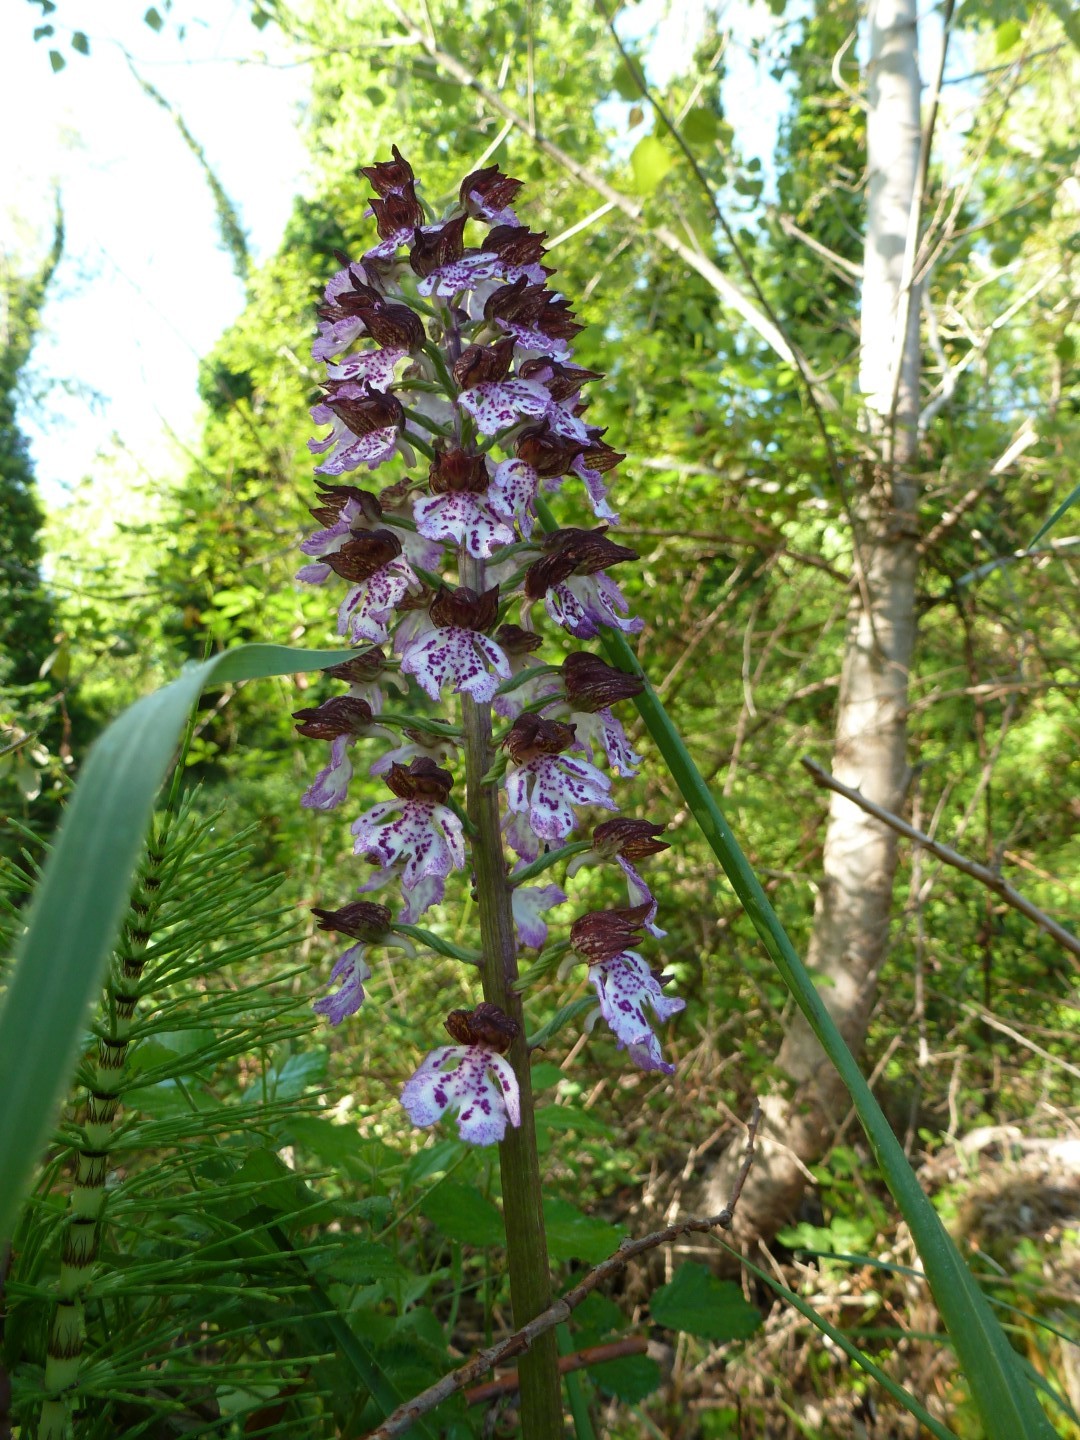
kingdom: Plantae
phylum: Tracheophyta
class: Liliopsida
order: Asparagales
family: Orchidaceae
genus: Orchis
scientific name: Orchis purpurea
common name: Lady orchid
